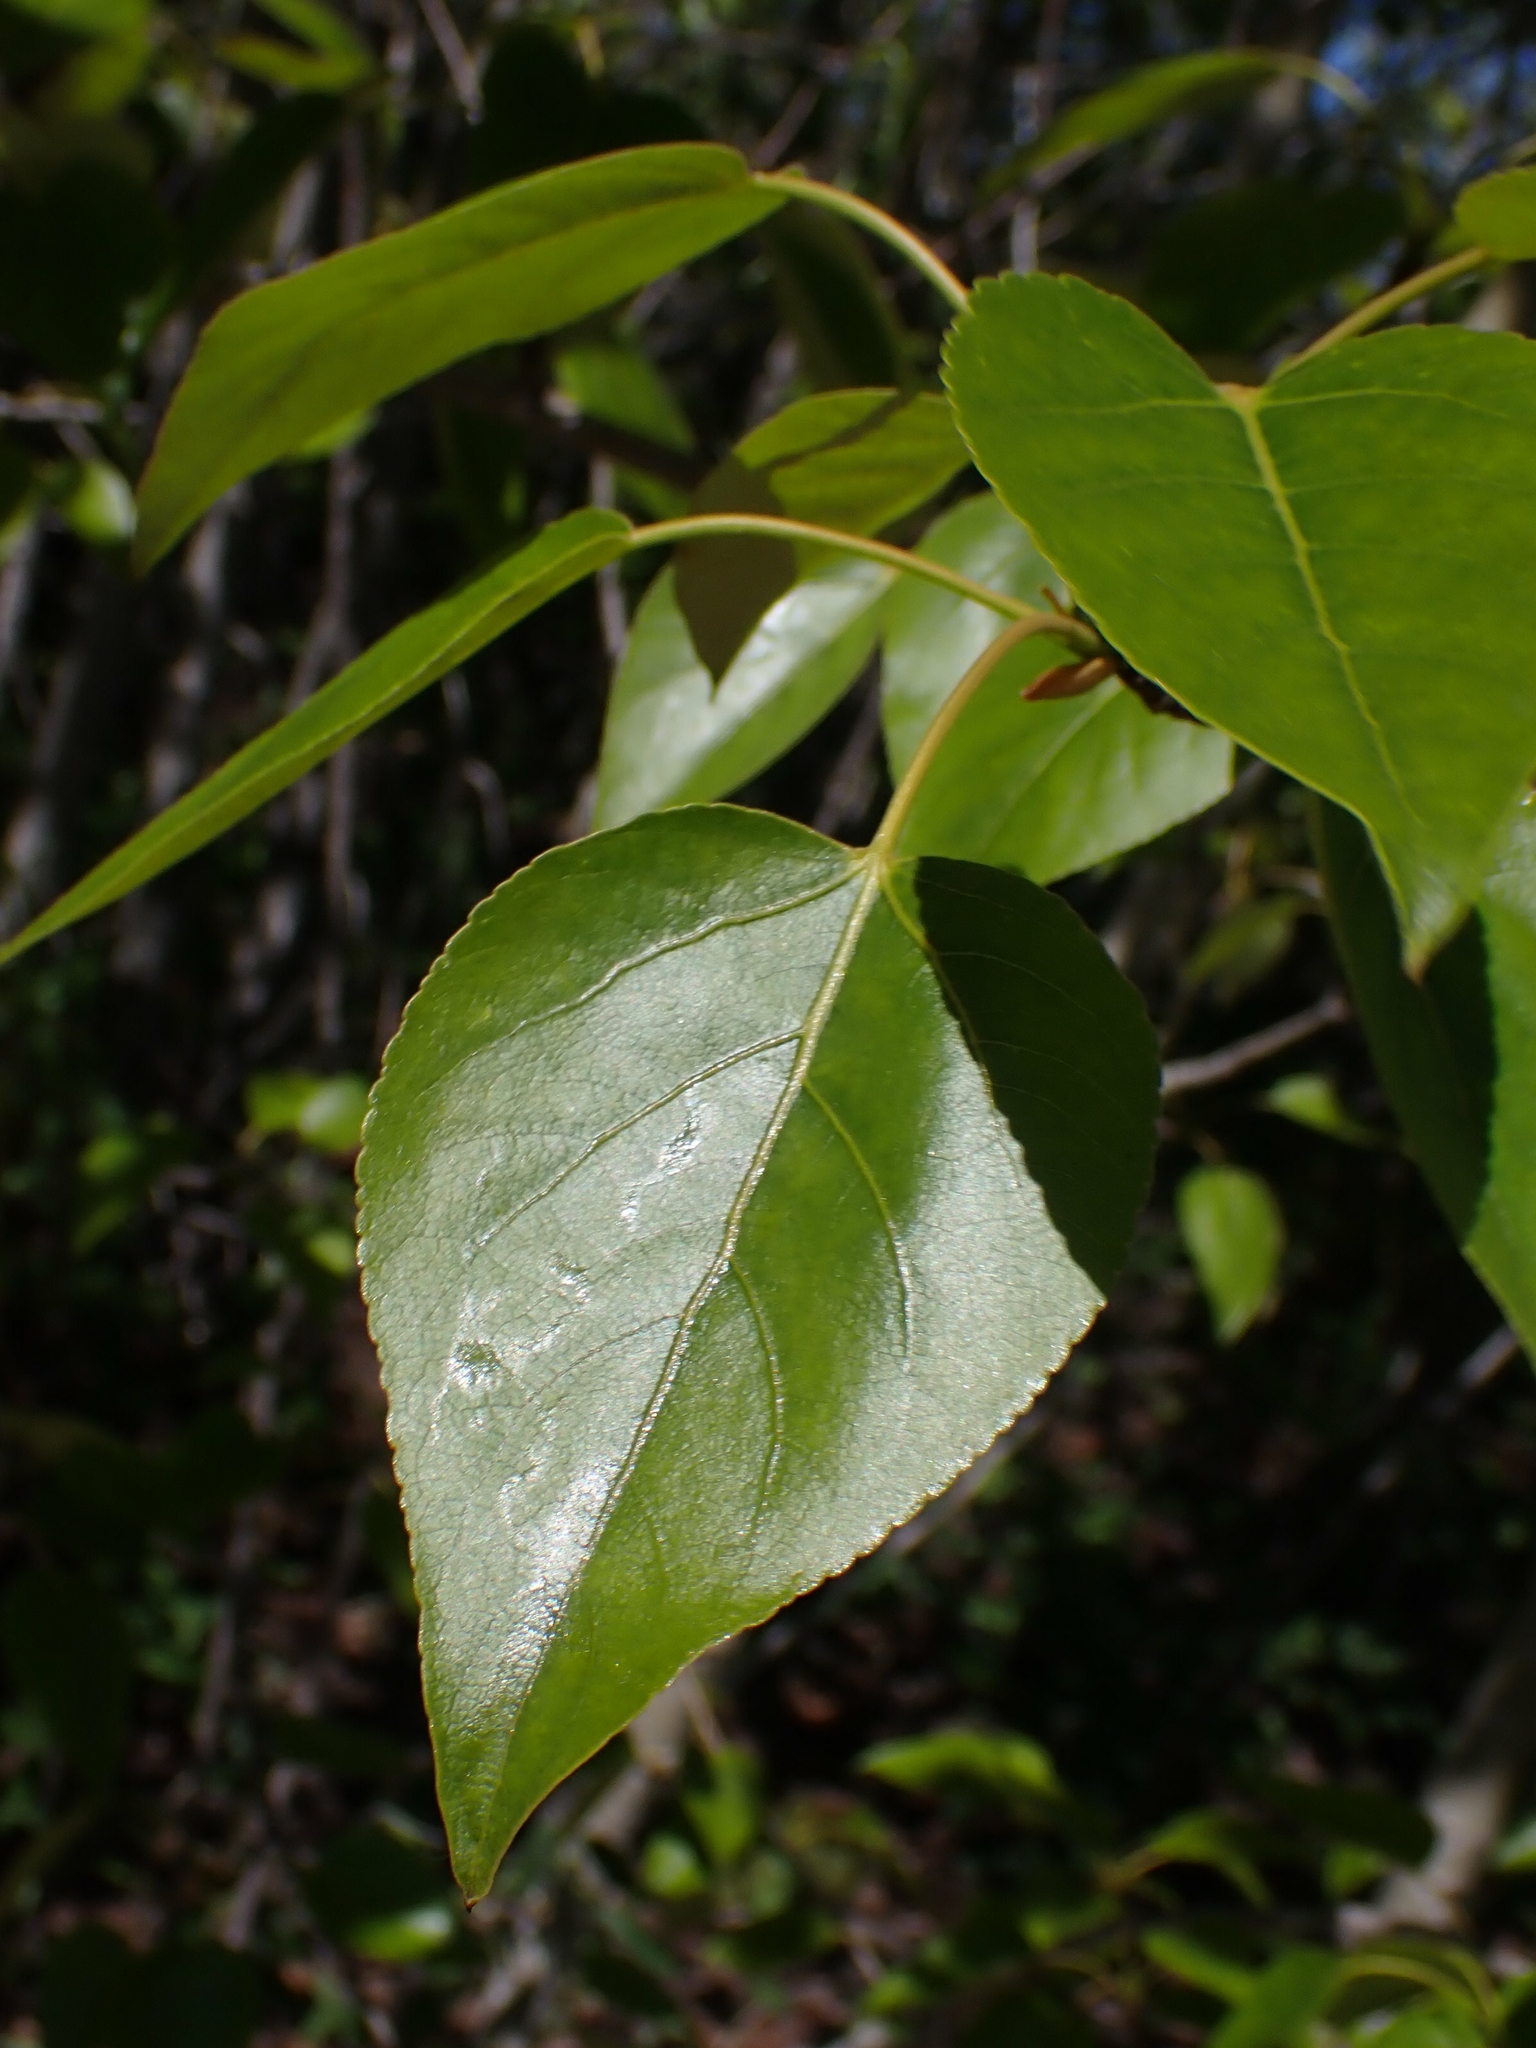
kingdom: Plantae
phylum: Tracheophyta
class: Magnoliopsida
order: Malpighiales
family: Salicaceae
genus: Populus
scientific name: Populus balsamifera
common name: Balsam poplar
